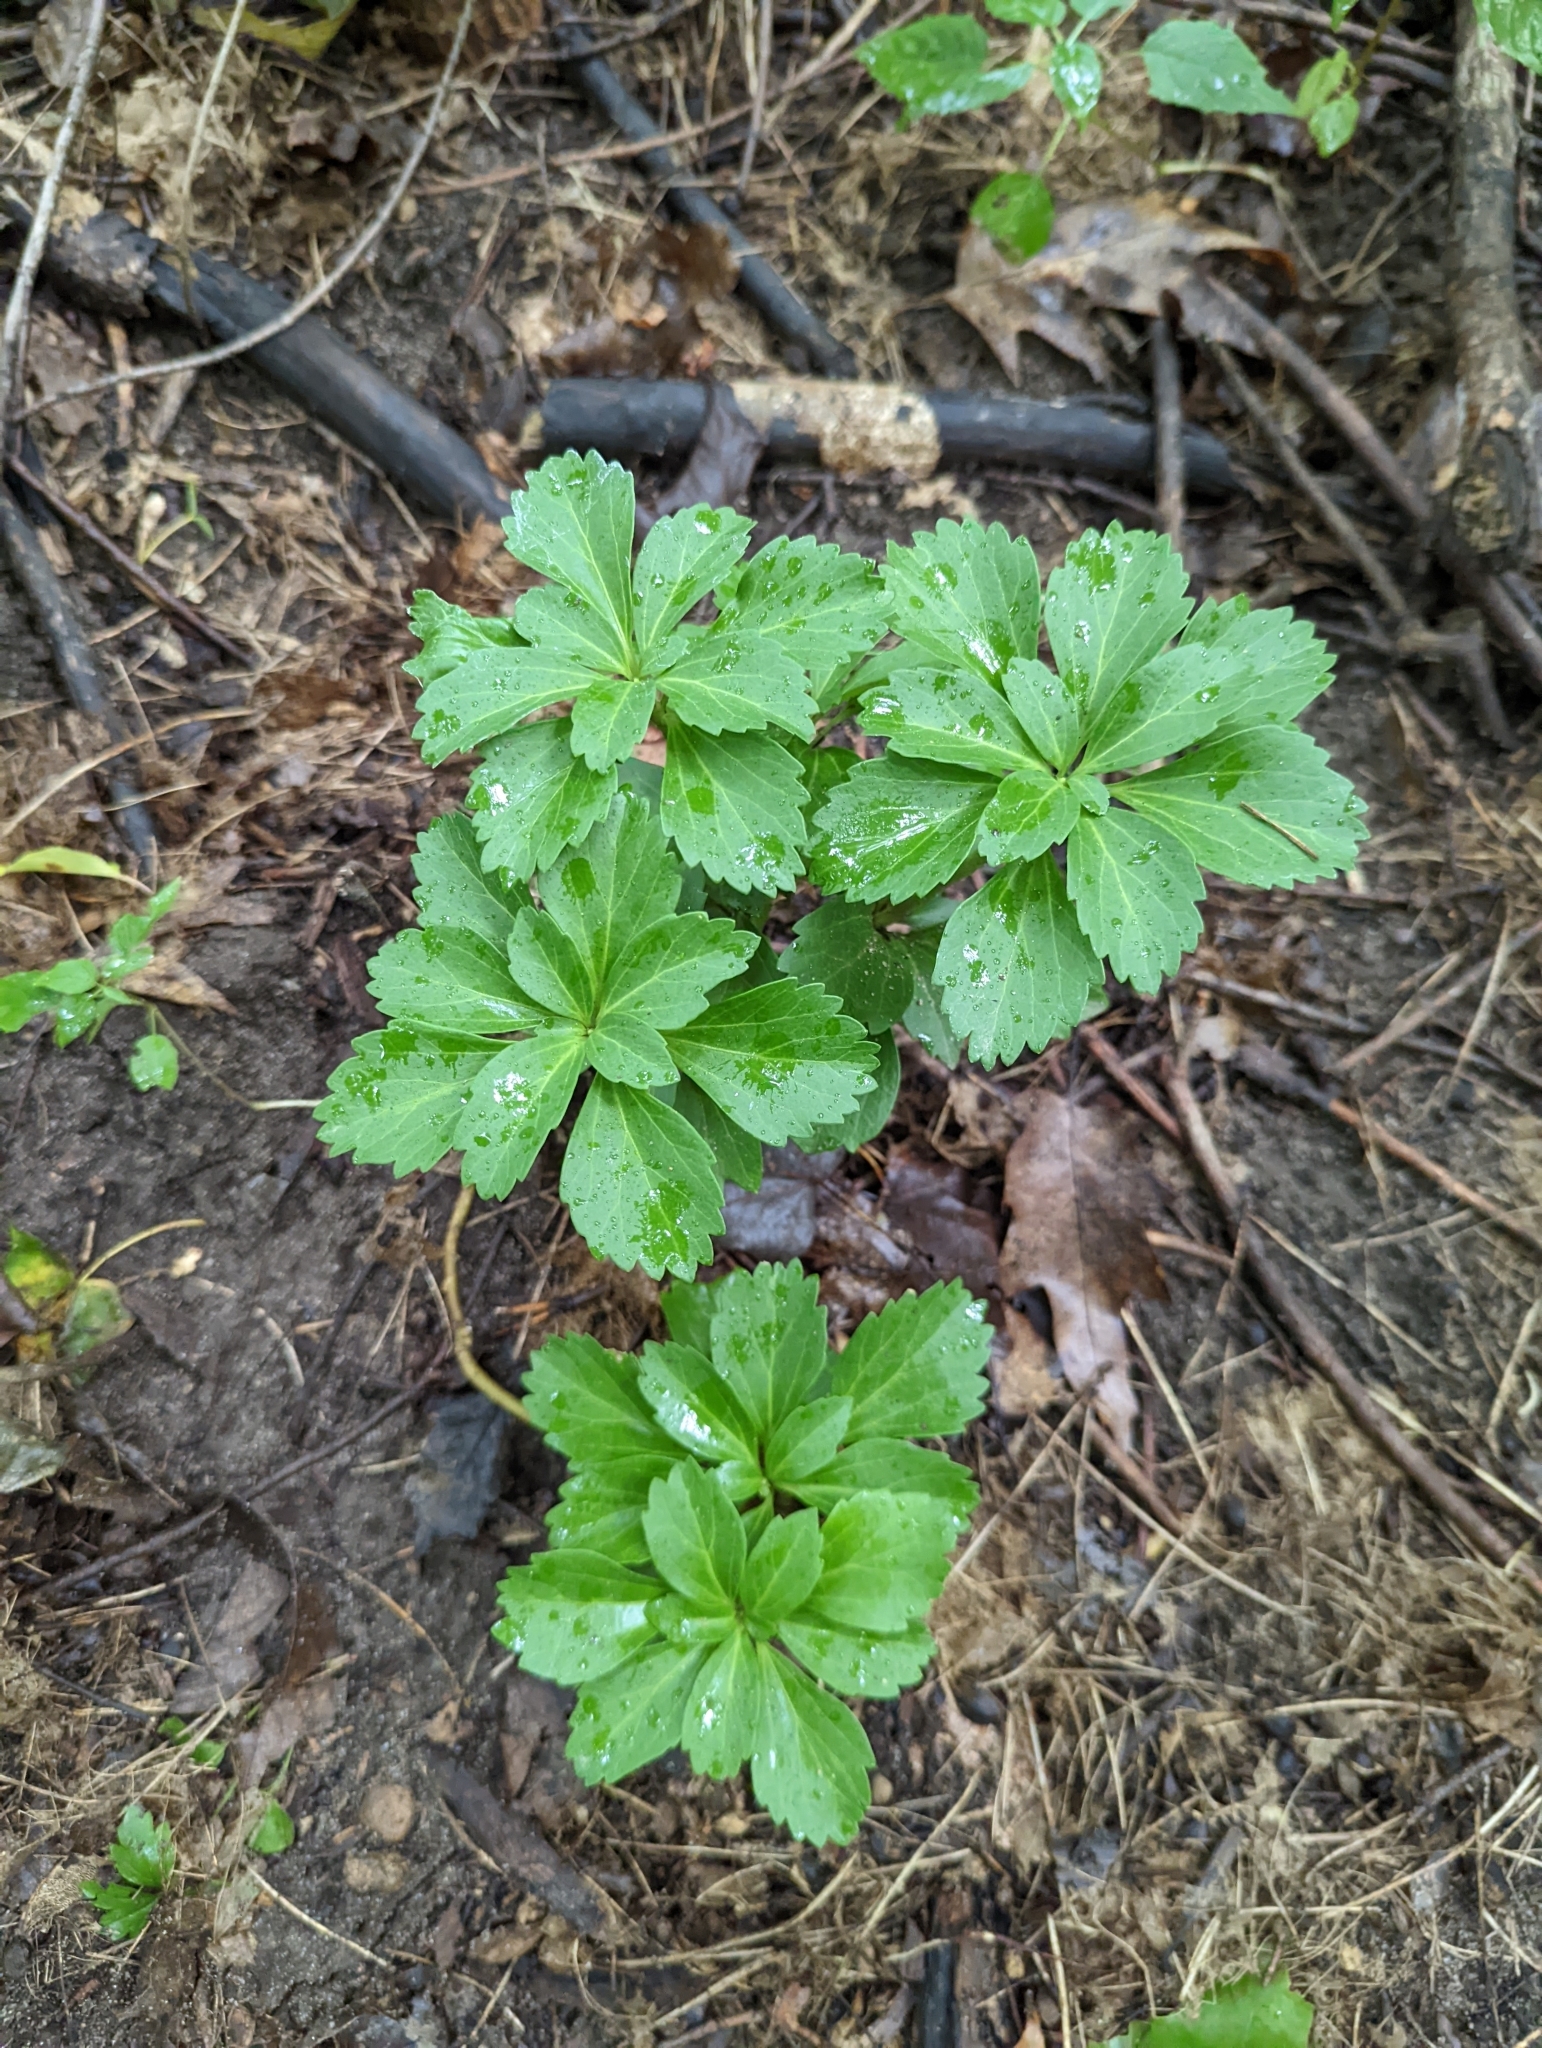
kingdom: Plantae
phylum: Tracheophyta
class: Magnoliopsida
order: Buxales
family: Buxaceae
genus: Pachysandra
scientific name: Pachysandra terminalis
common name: Japanese pachysandra
